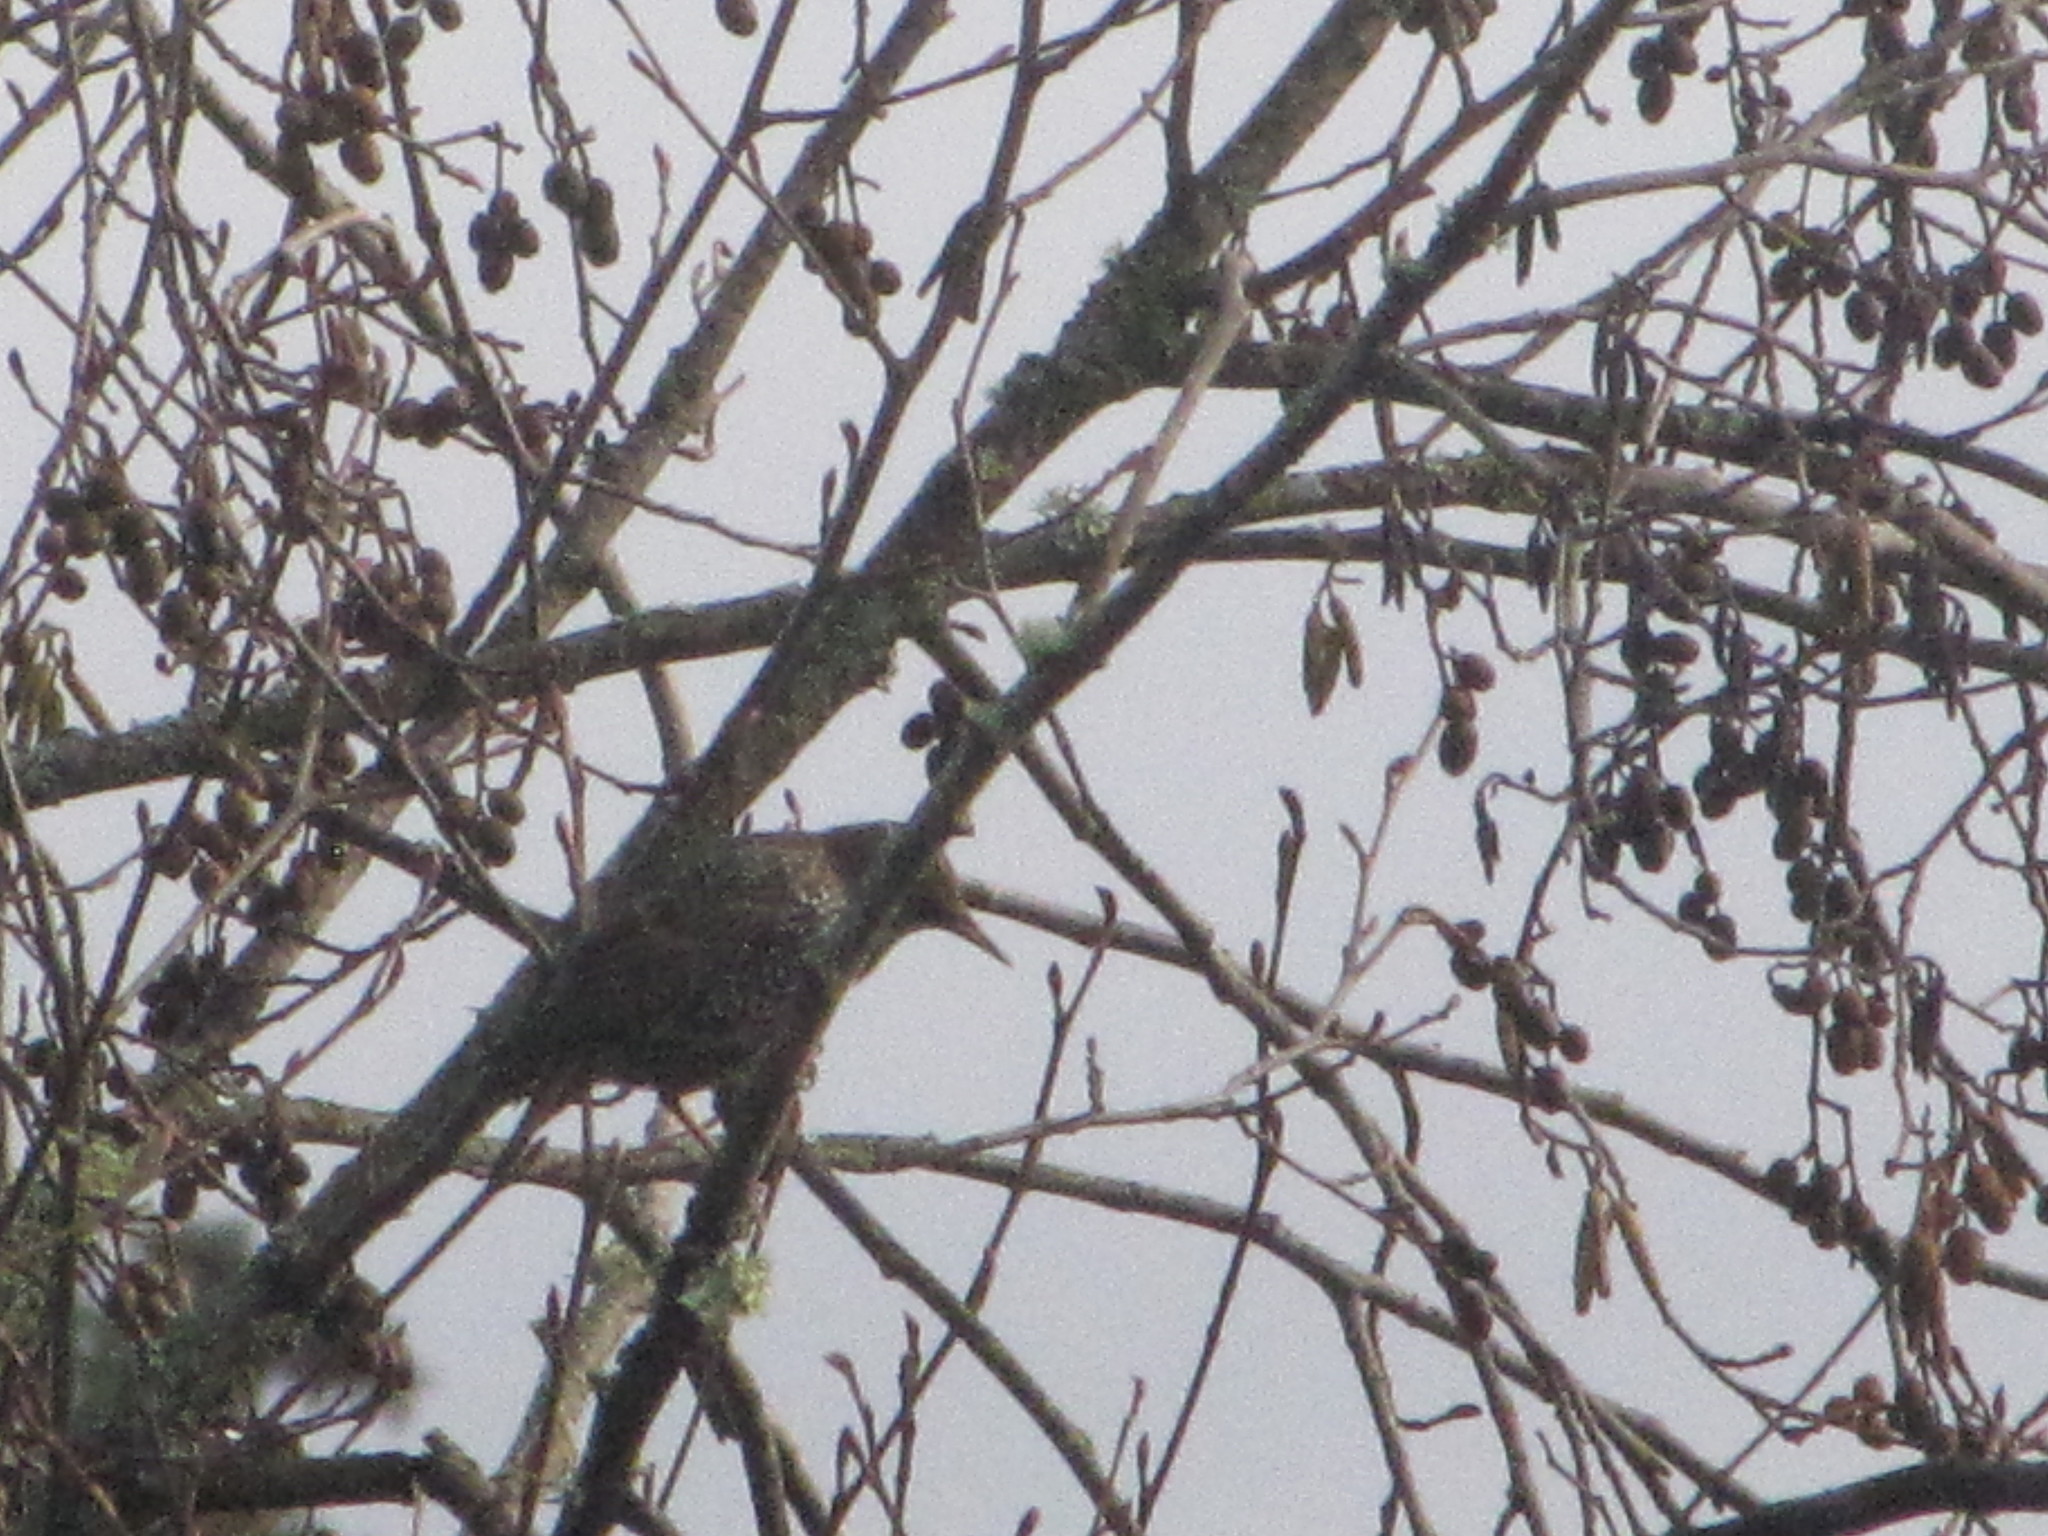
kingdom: Animalia
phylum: Chordata
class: Aves
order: Passeriformes
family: Sturnidae
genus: Sturnus
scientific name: Sturnus vulgaris
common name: Common starling
